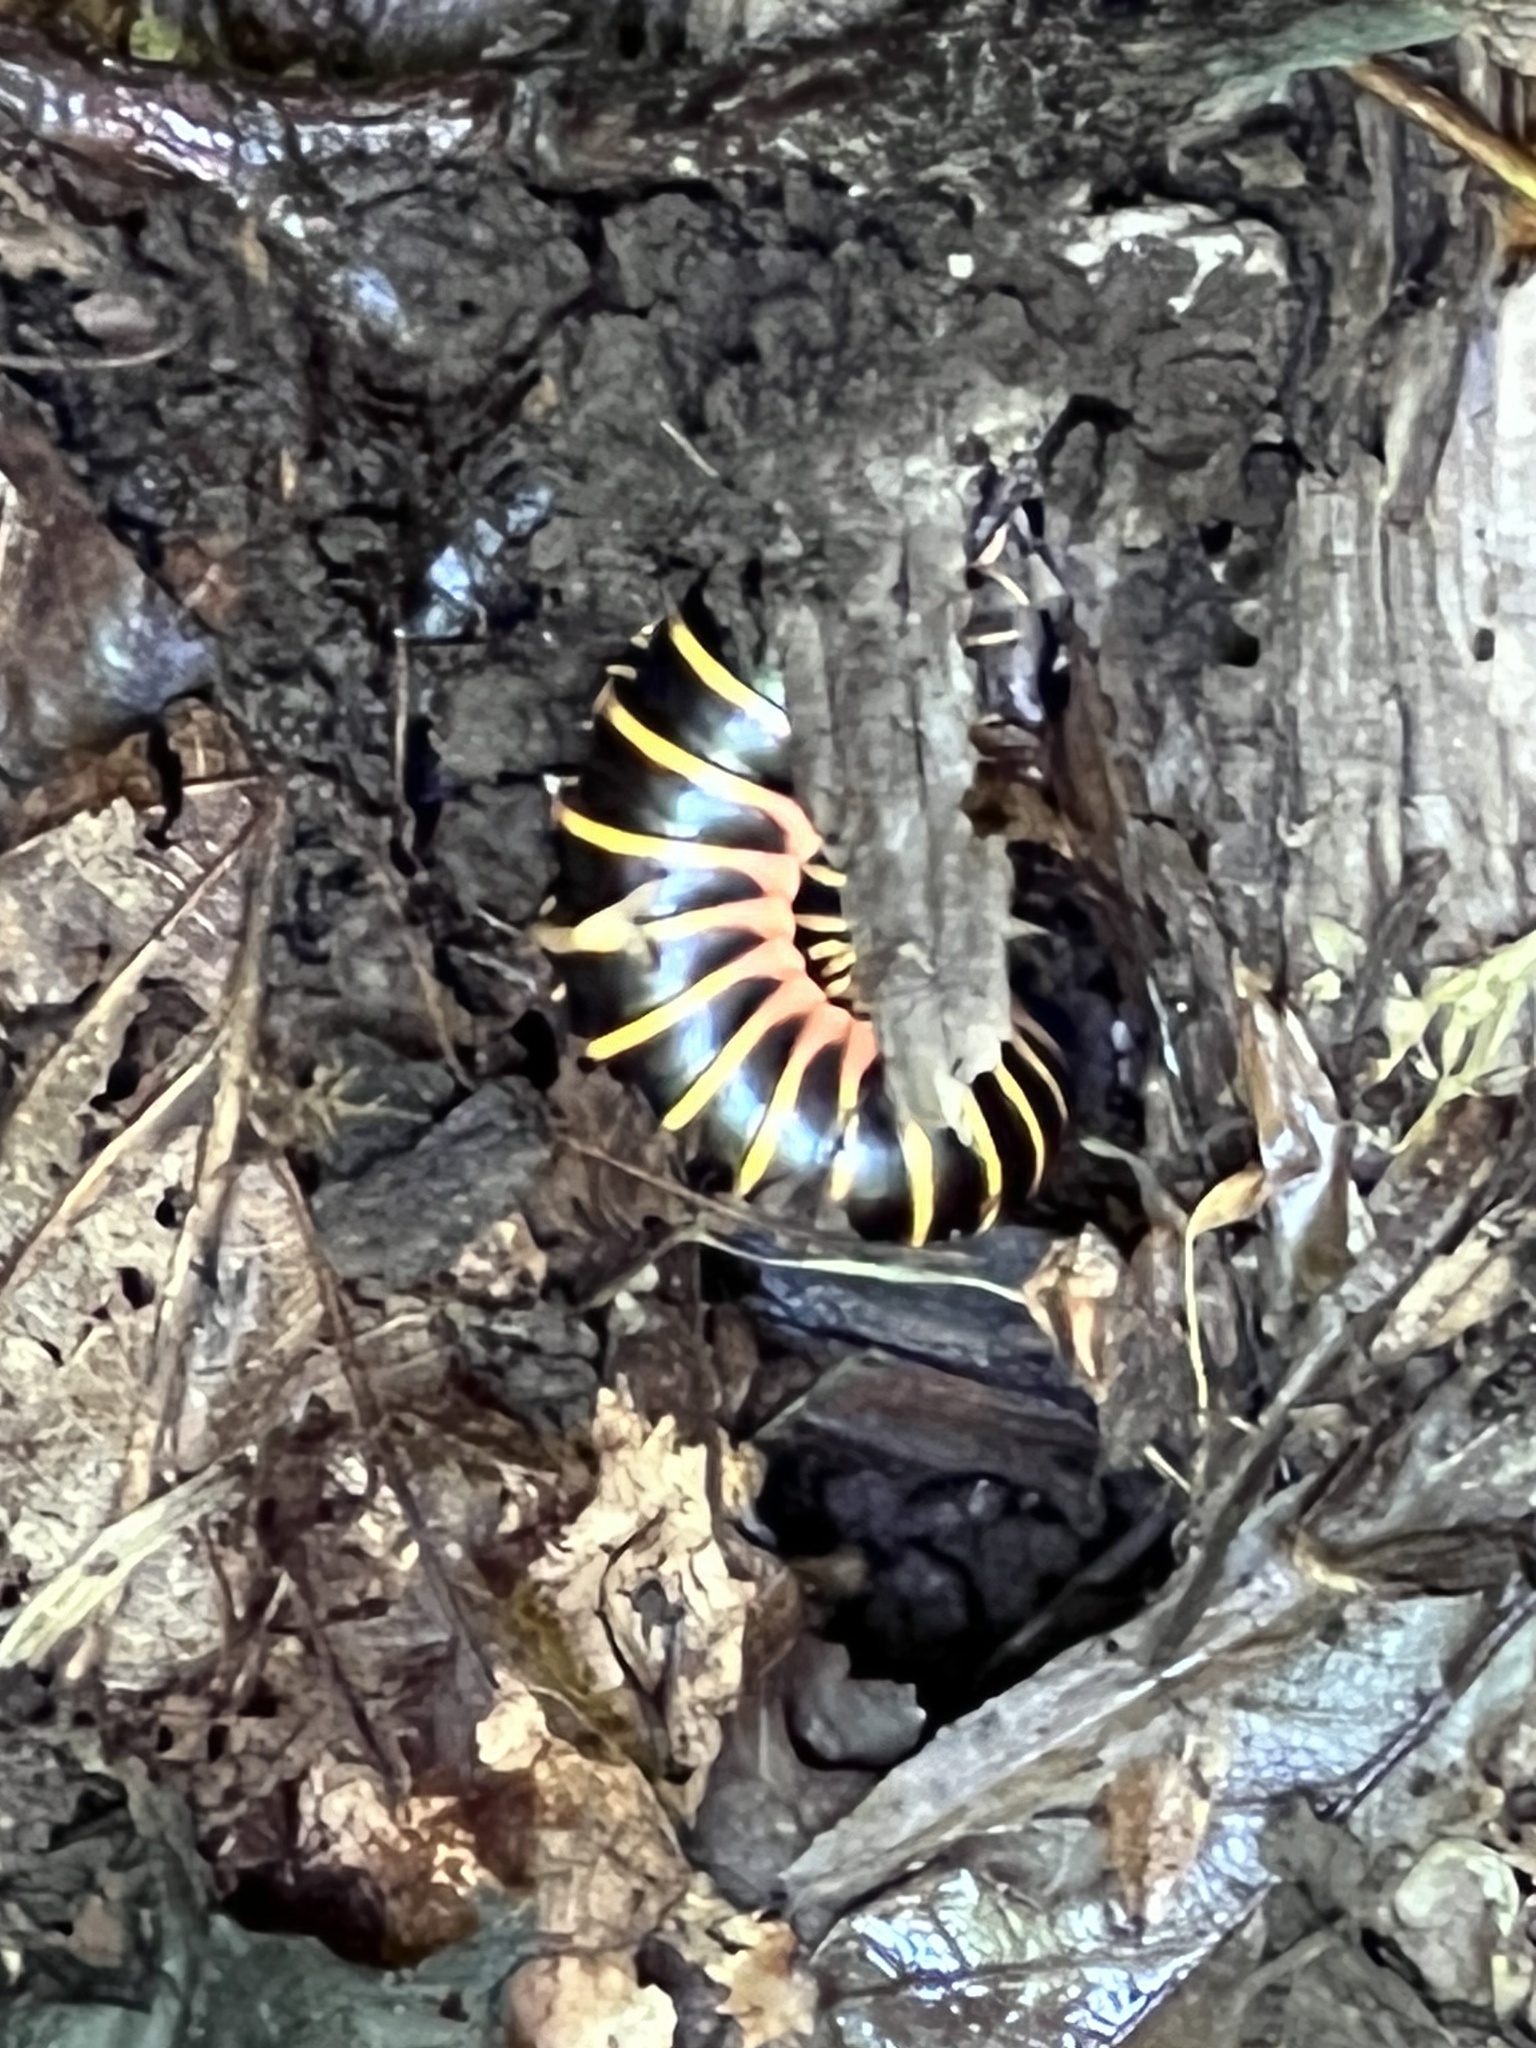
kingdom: Animalia
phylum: Arthropoda
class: Diplopoda
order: Polydesmida
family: Xystodesmidae
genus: Apheloria
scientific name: Apheloria virginiensis
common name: Black-and-gold flat millipede
